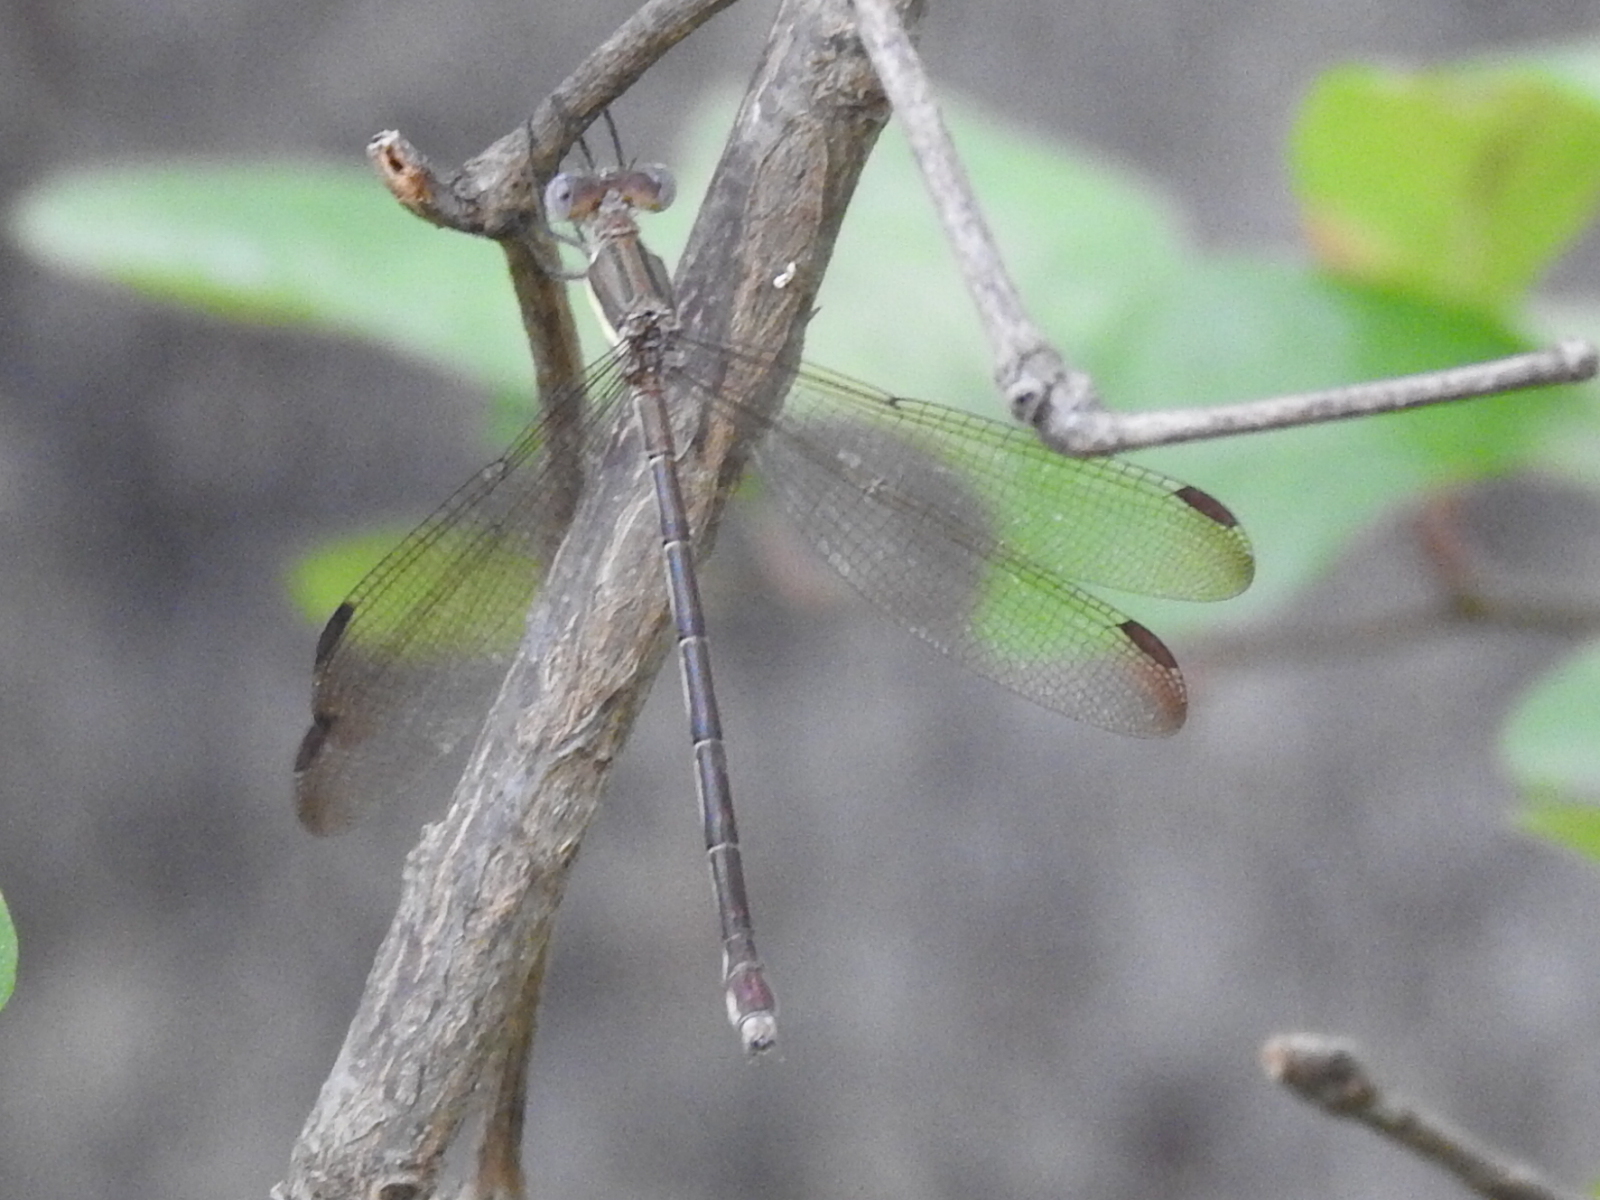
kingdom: Animalia
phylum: Arthropoda
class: Insecta
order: Odonata
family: Lestidae
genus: Archilestes
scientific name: Archilestes grandis
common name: Great spreadwing
